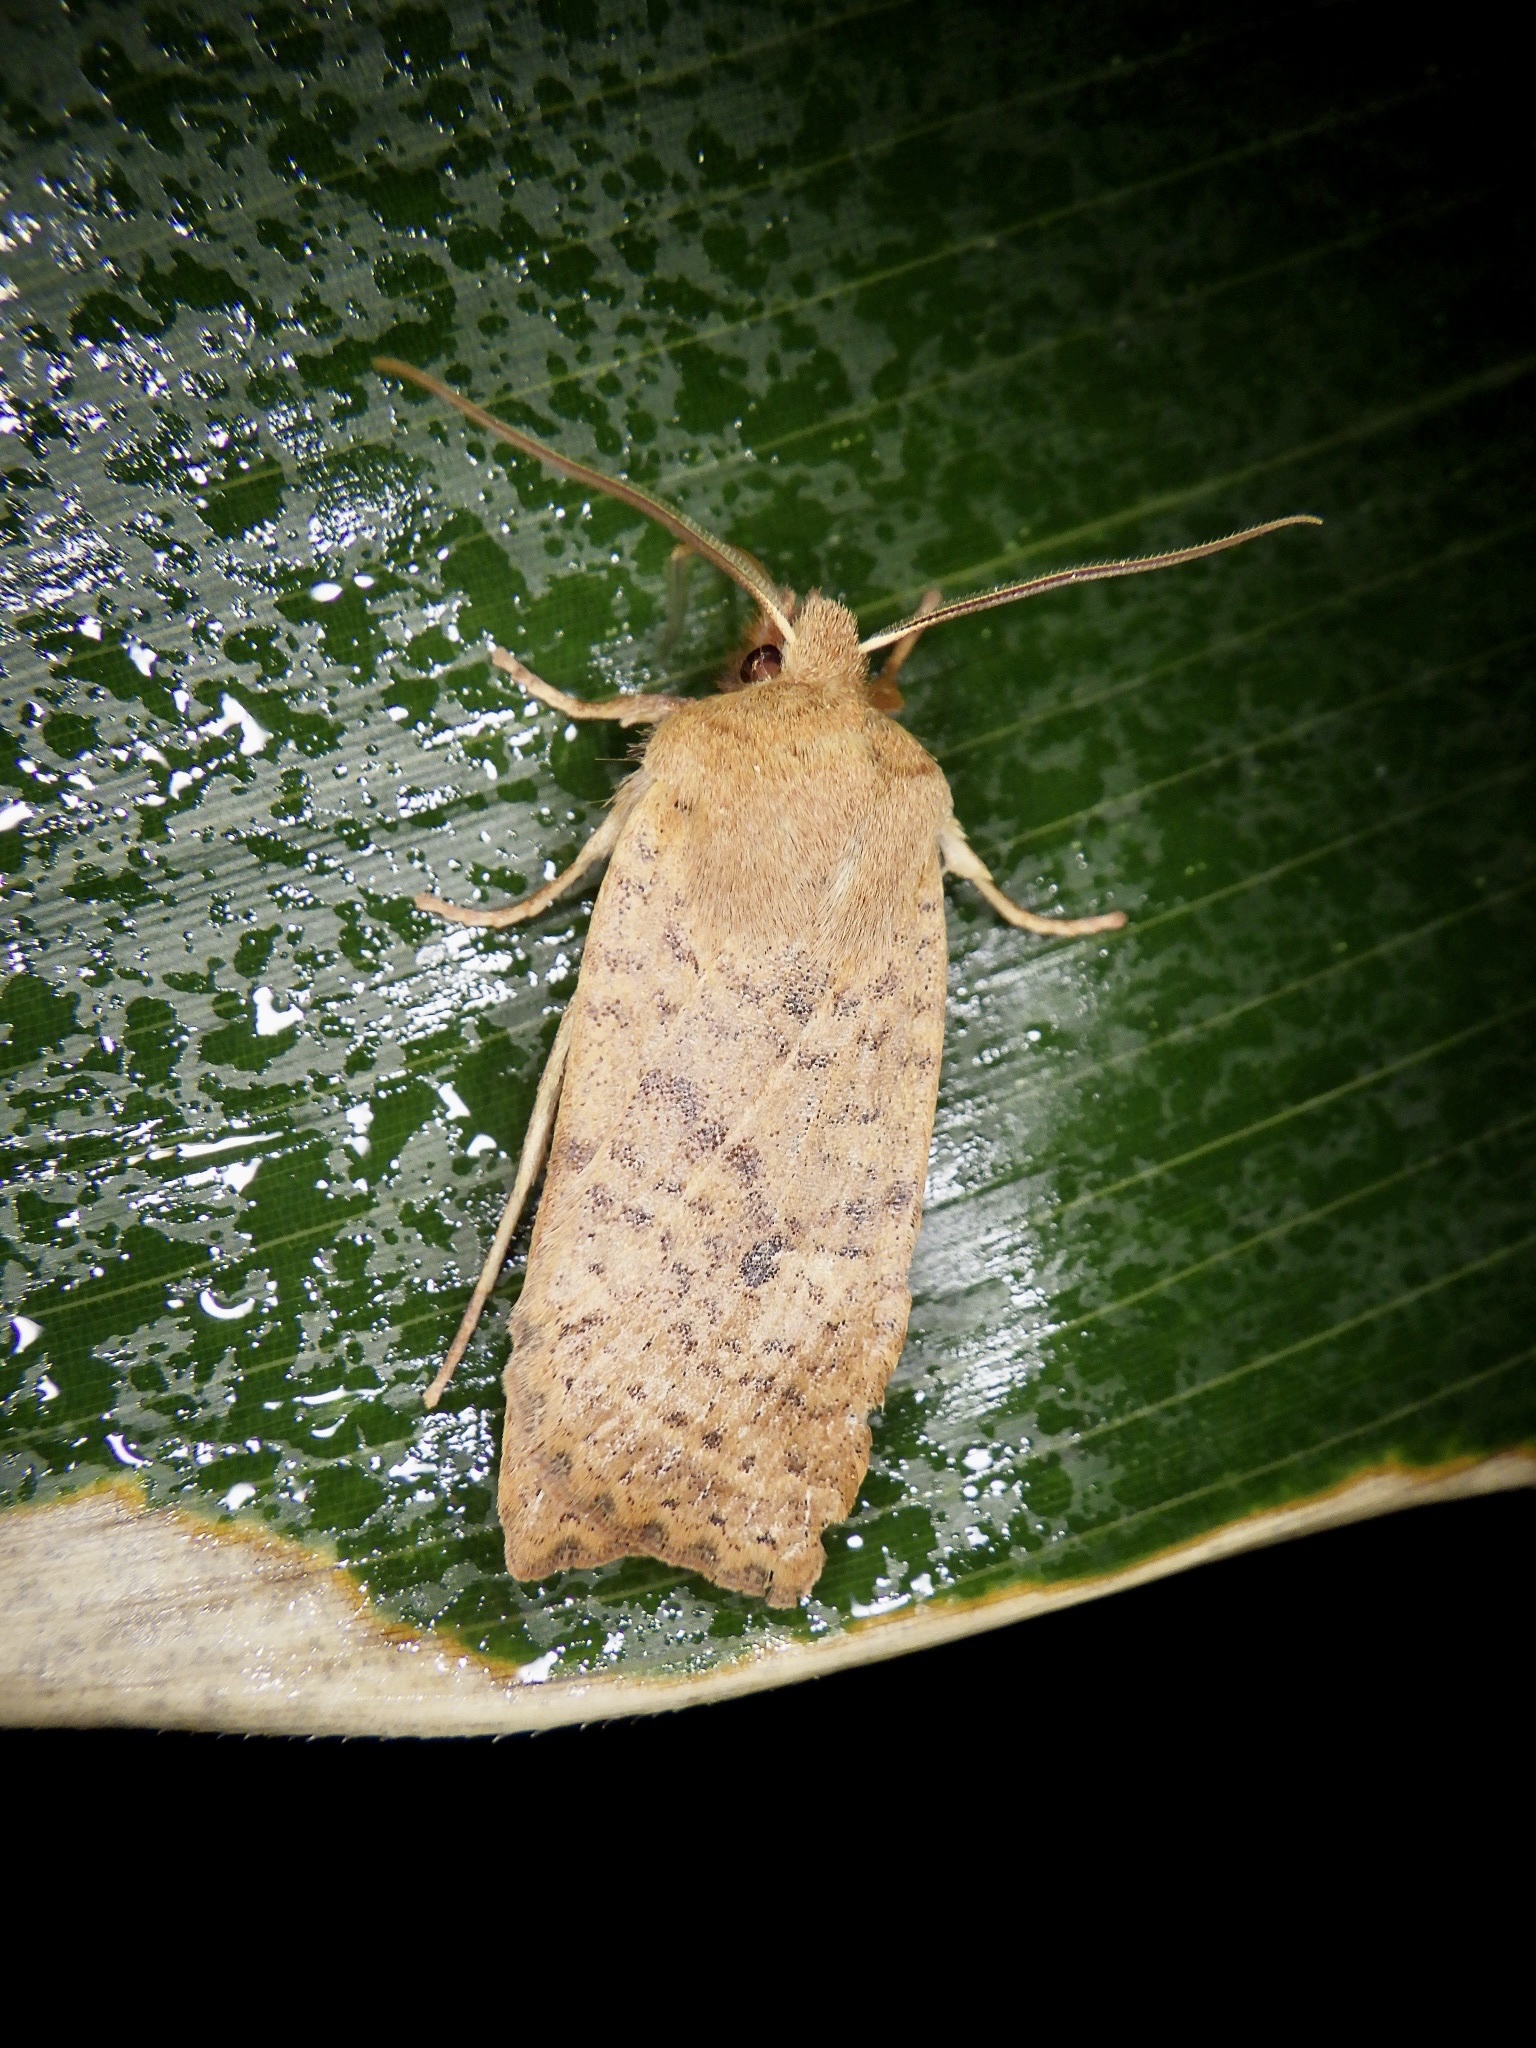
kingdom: Animalia
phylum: Arthropoda
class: Insecta
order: Lepidoptera
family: Noctuidae
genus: Conistra
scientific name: Conistra albipuncta
